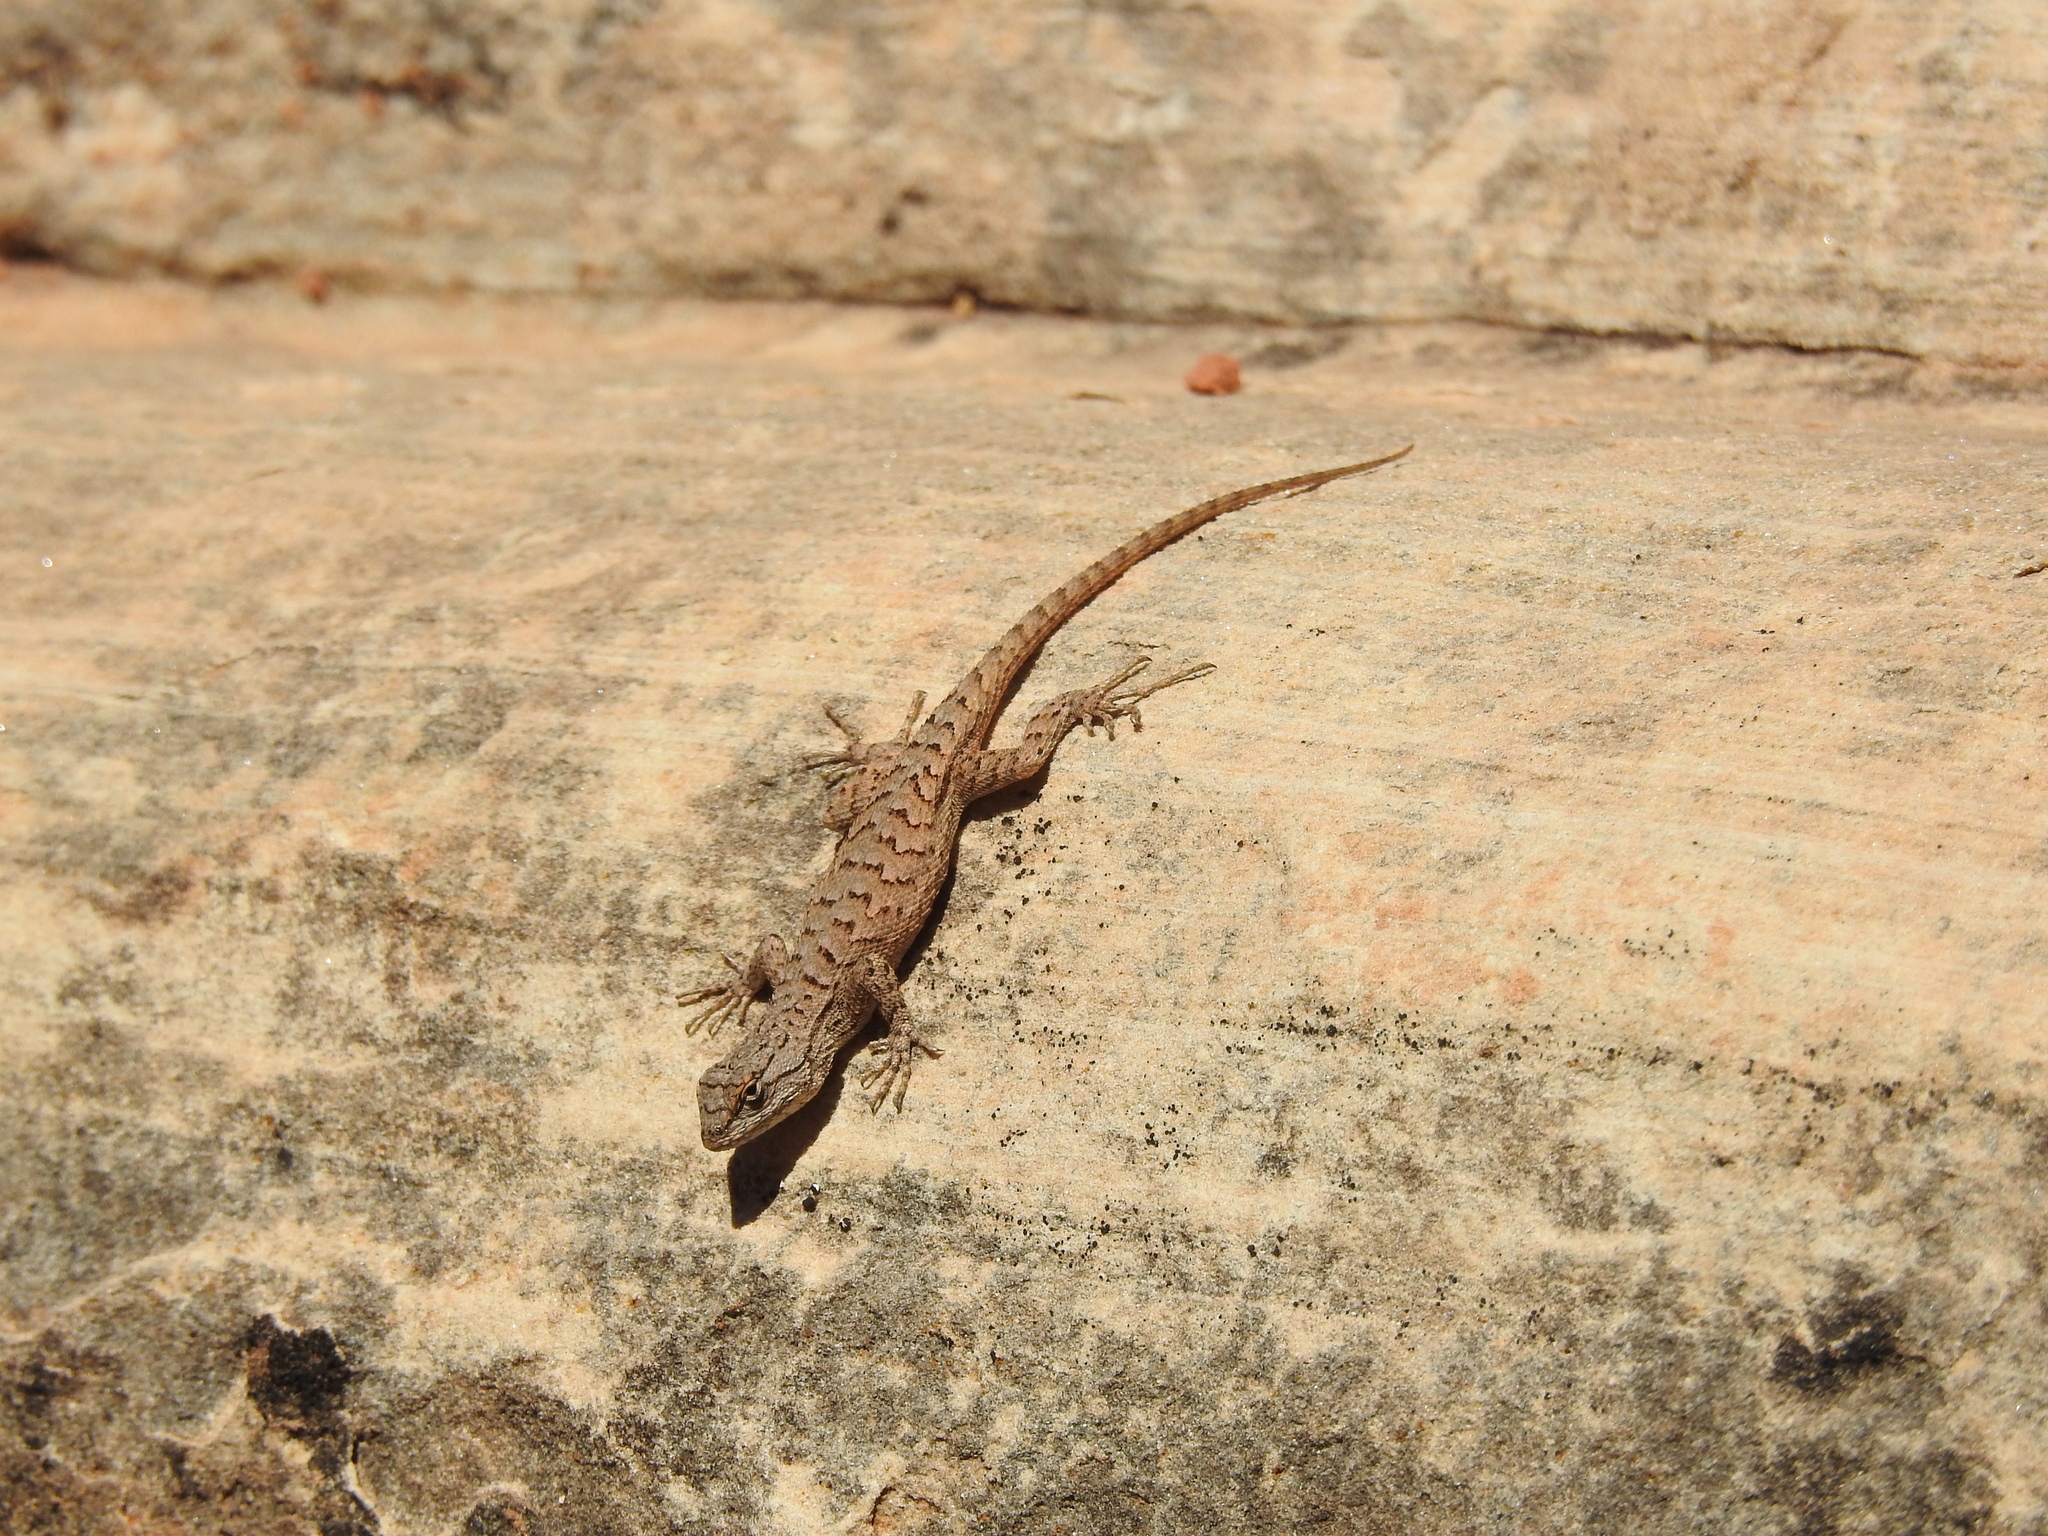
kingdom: Animalia
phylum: Chordata
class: Squamata
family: Phrynosomatidae
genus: Sceloporus
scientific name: Sceloporus tristichus
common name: Plateau fence lizard
